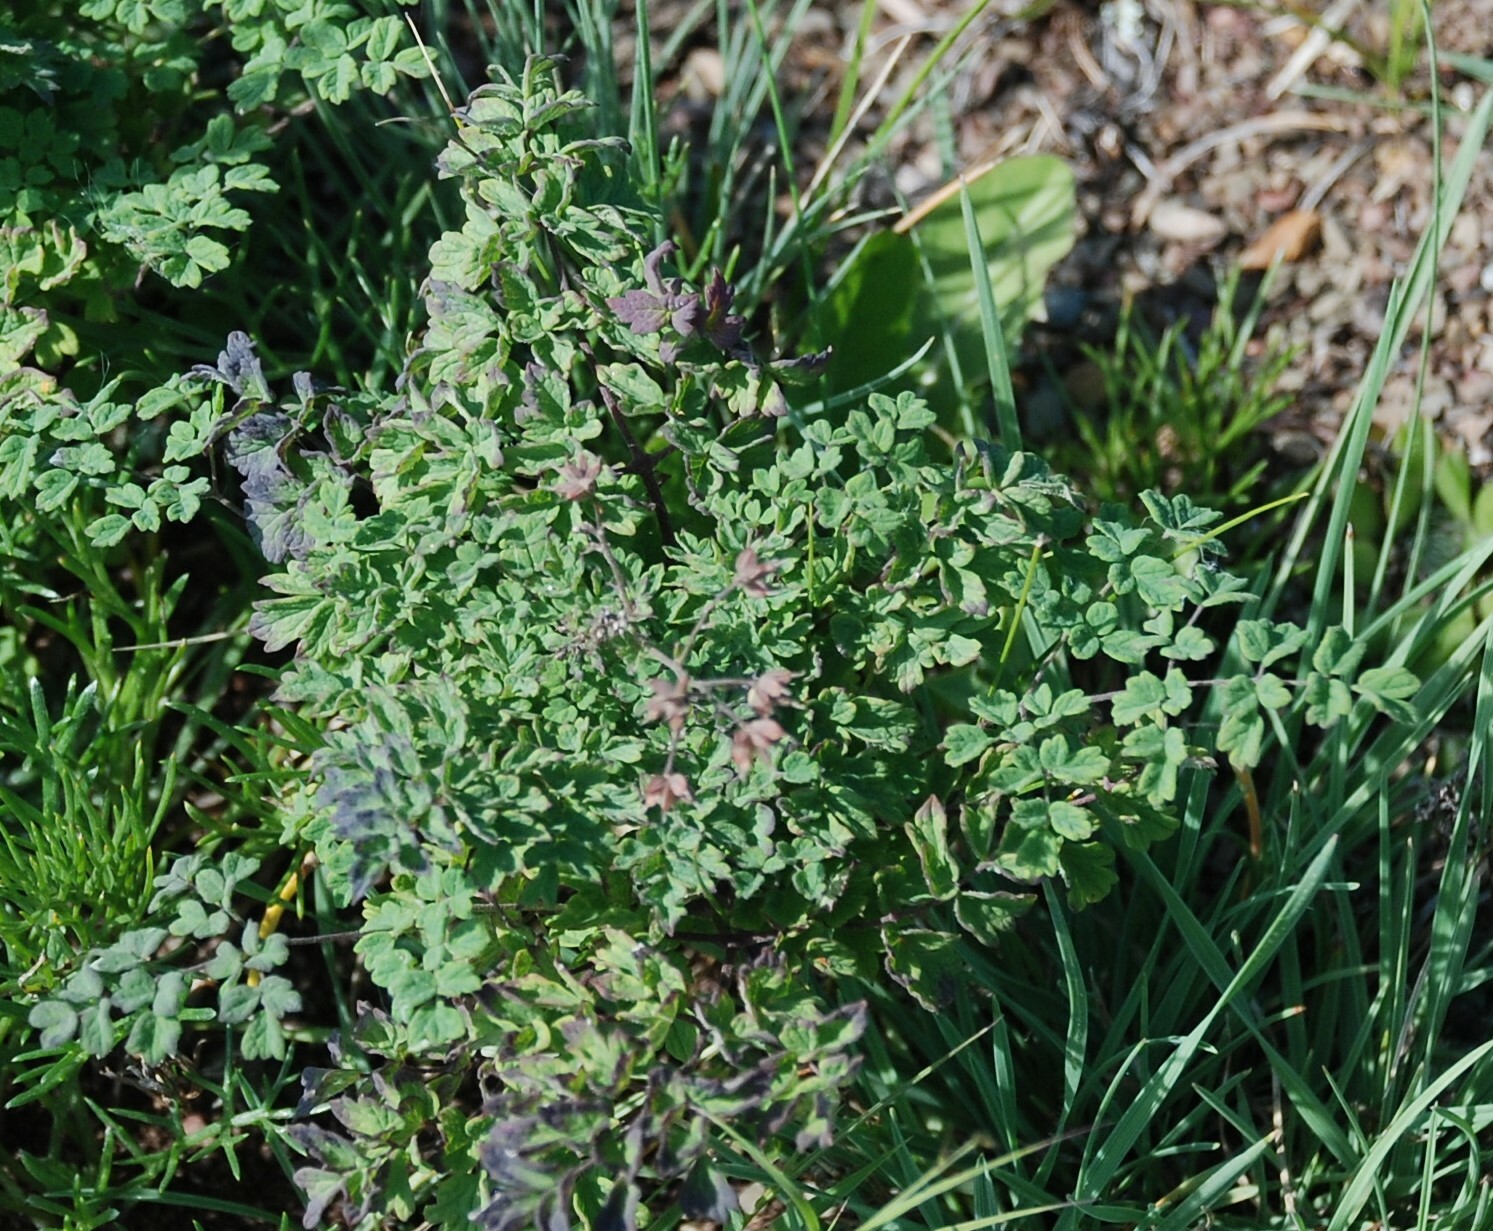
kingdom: Plantae
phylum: Tracheophyta
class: Magnoliopsida
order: Ranunculales
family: Ranunculaceae
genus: Thalictrum
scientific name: Thalictrum foetidum
